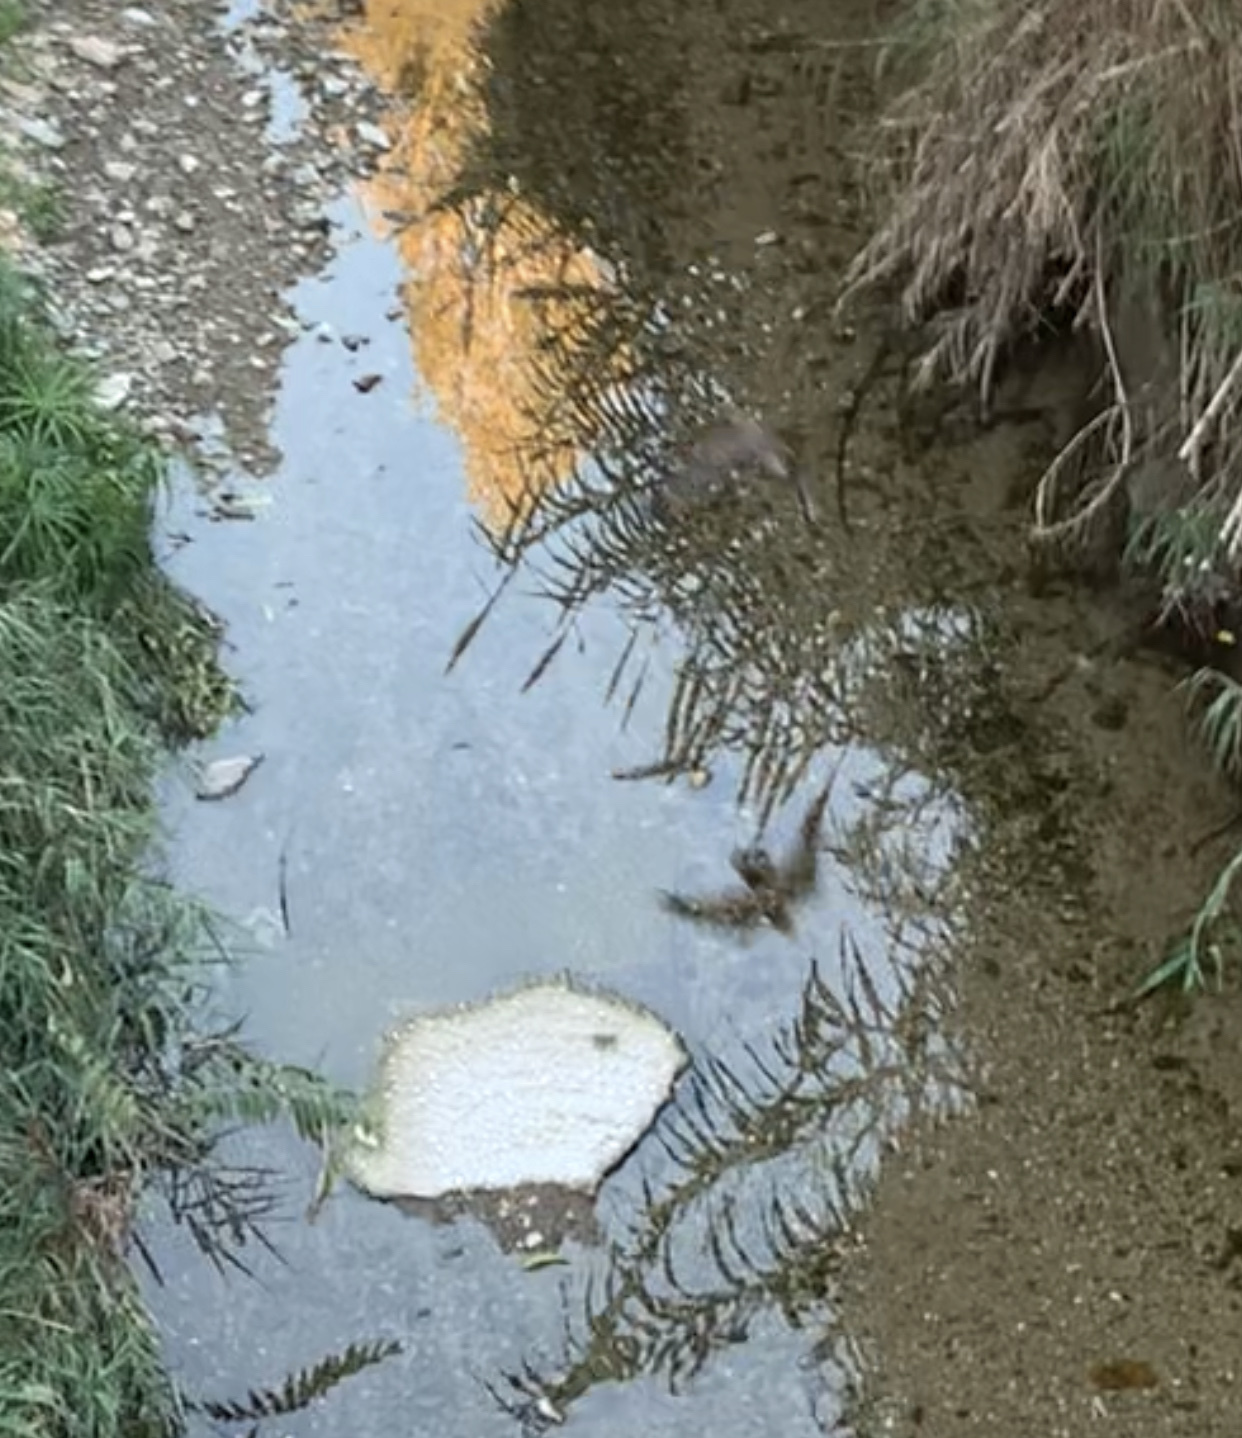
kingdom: Animalia
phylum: Chordata
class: Aves
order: Accipitriformes
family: Accipitridae
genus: Buteo
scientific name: Buteo buteo
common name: Common buzzard
